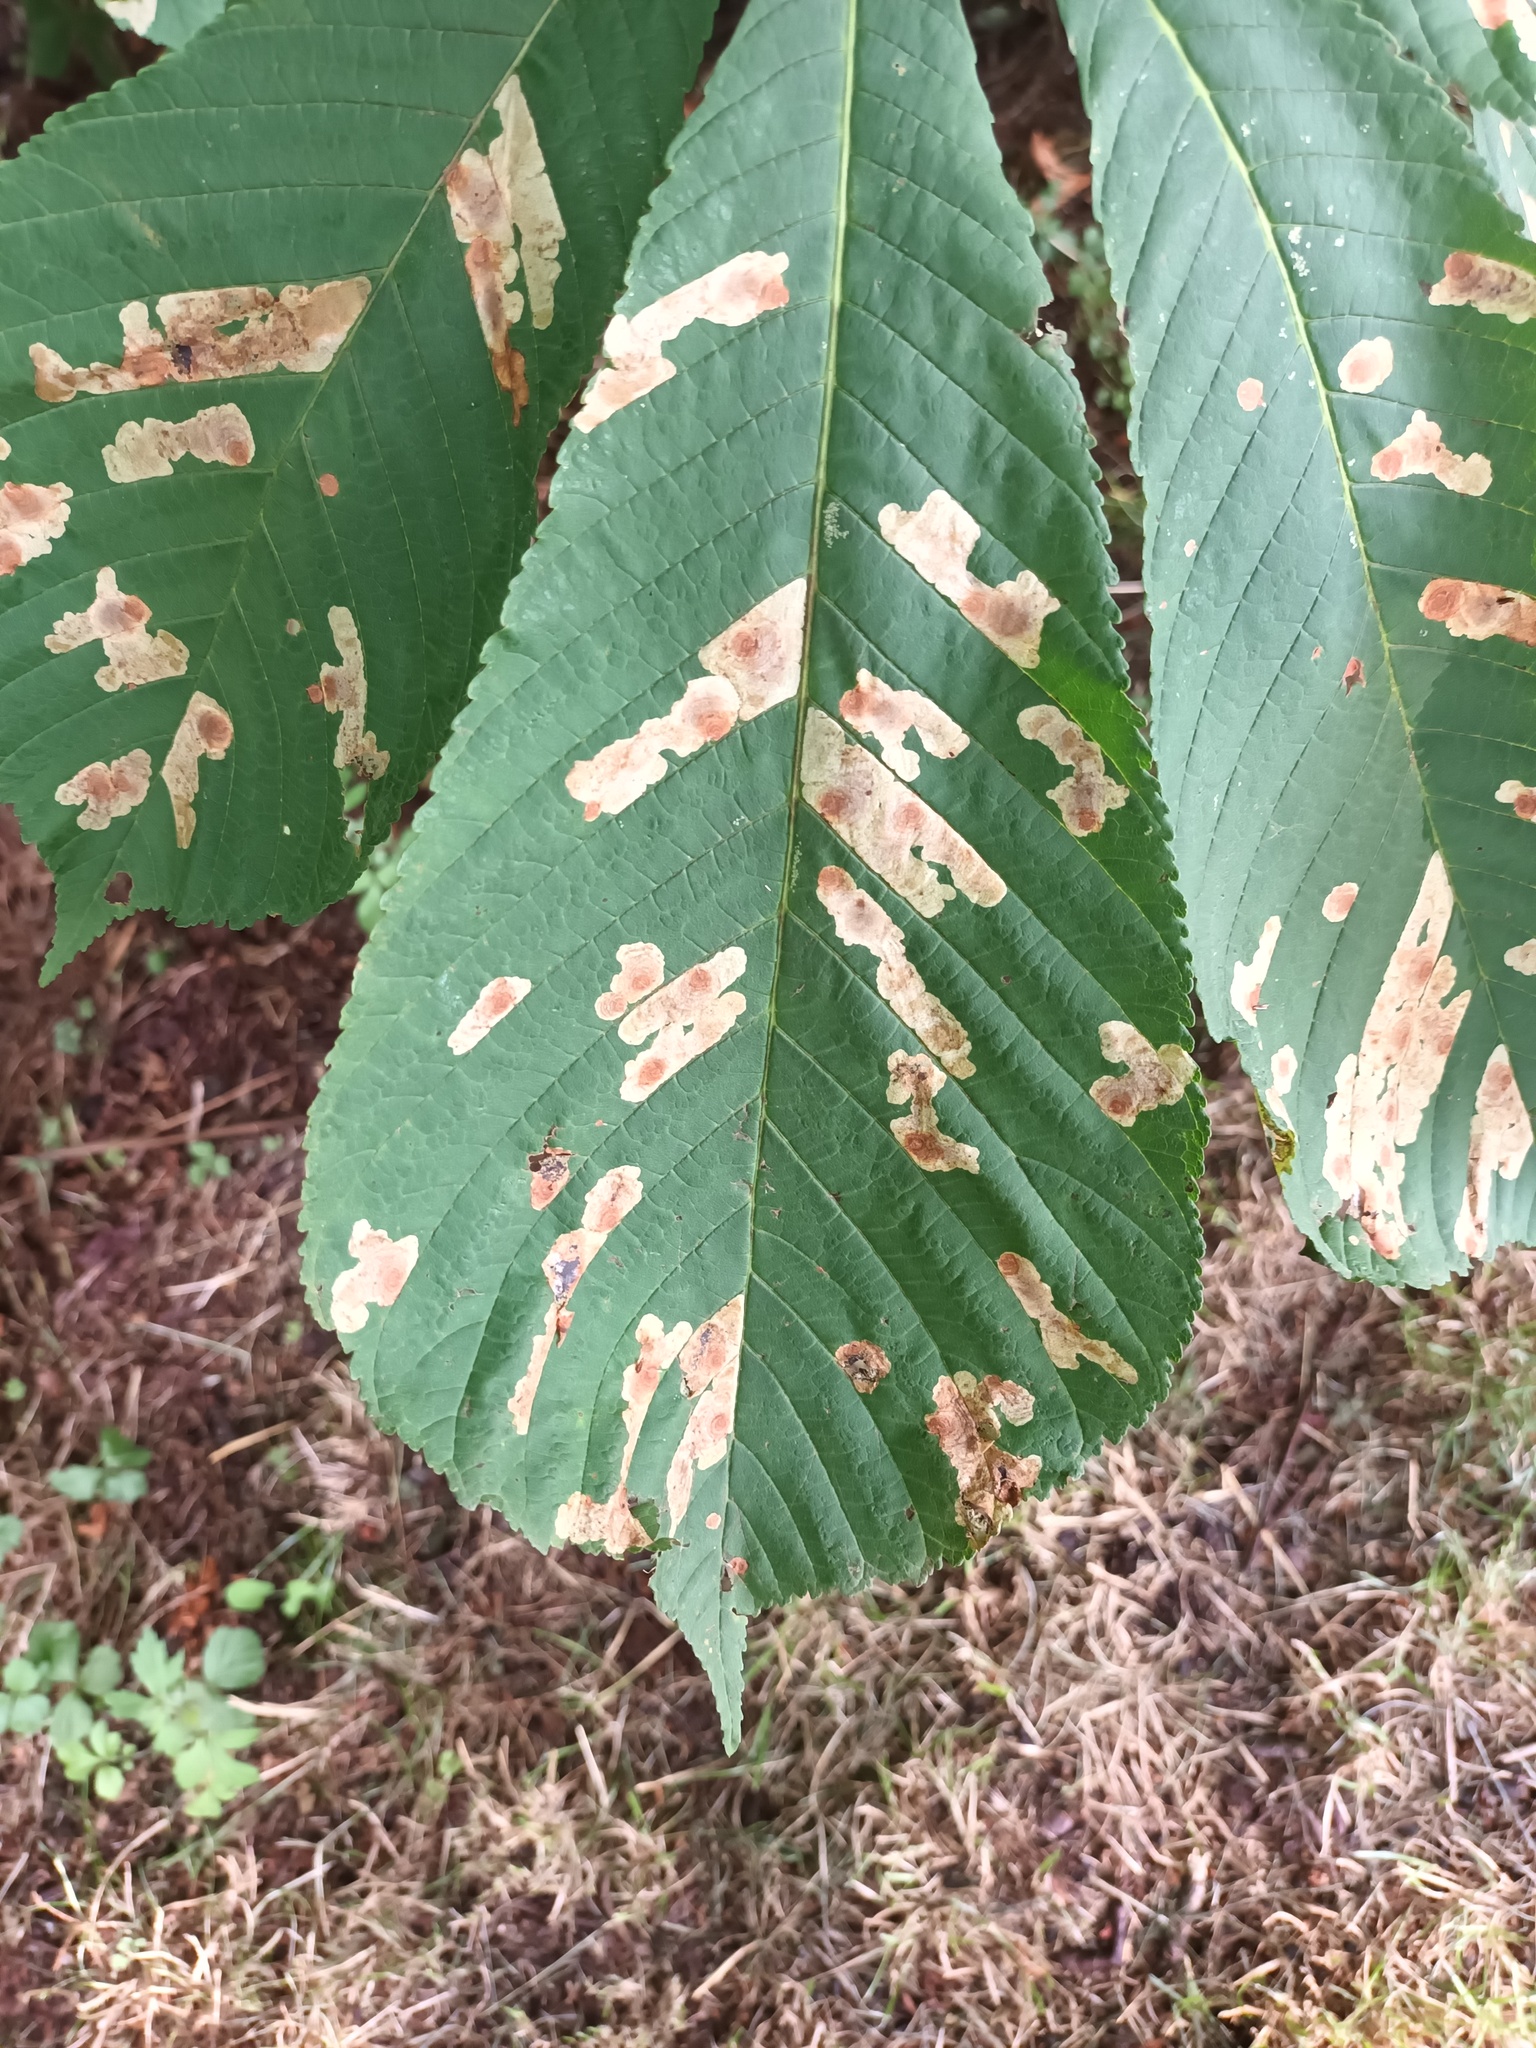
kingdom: Animalia
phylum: Arthropoda
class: Insecta
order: Lepidoptera
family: Gracillariidae
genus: Cameraria
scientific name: Cameraria ohridella
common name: Horse-chestnut leaf-miner
